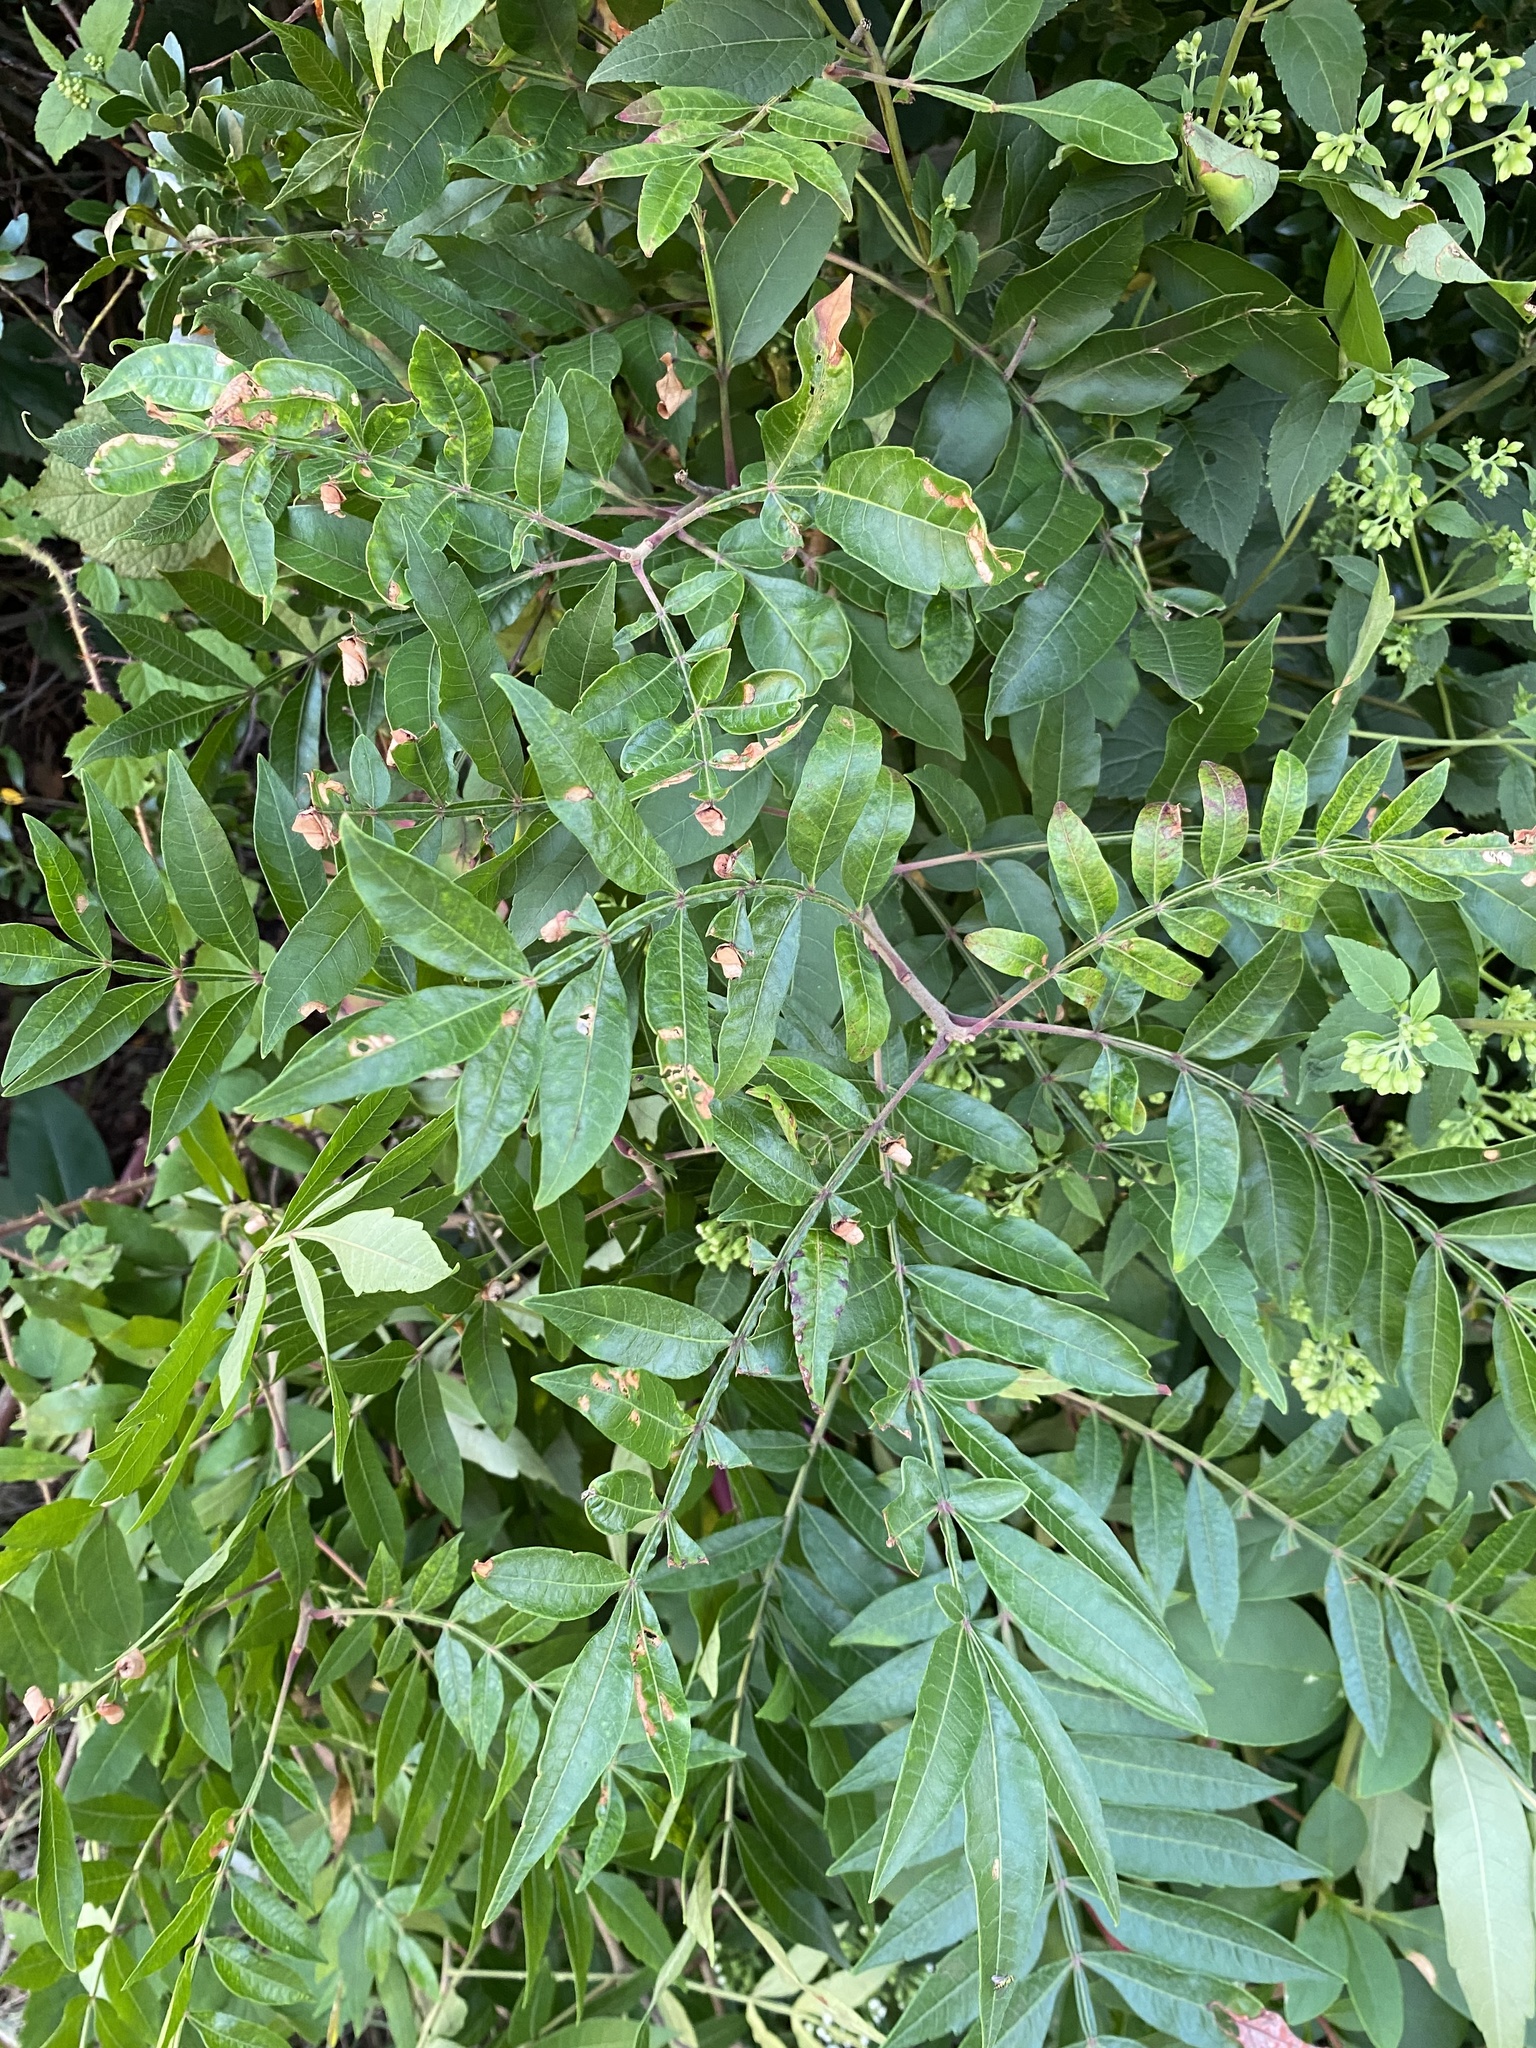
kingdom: Plantae
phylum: Tracheophyta
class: Magnoliopsida
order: Sapindales
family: Anacardiaceae
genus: Rhus
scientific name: Rhus copallina
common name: Shining sumac
